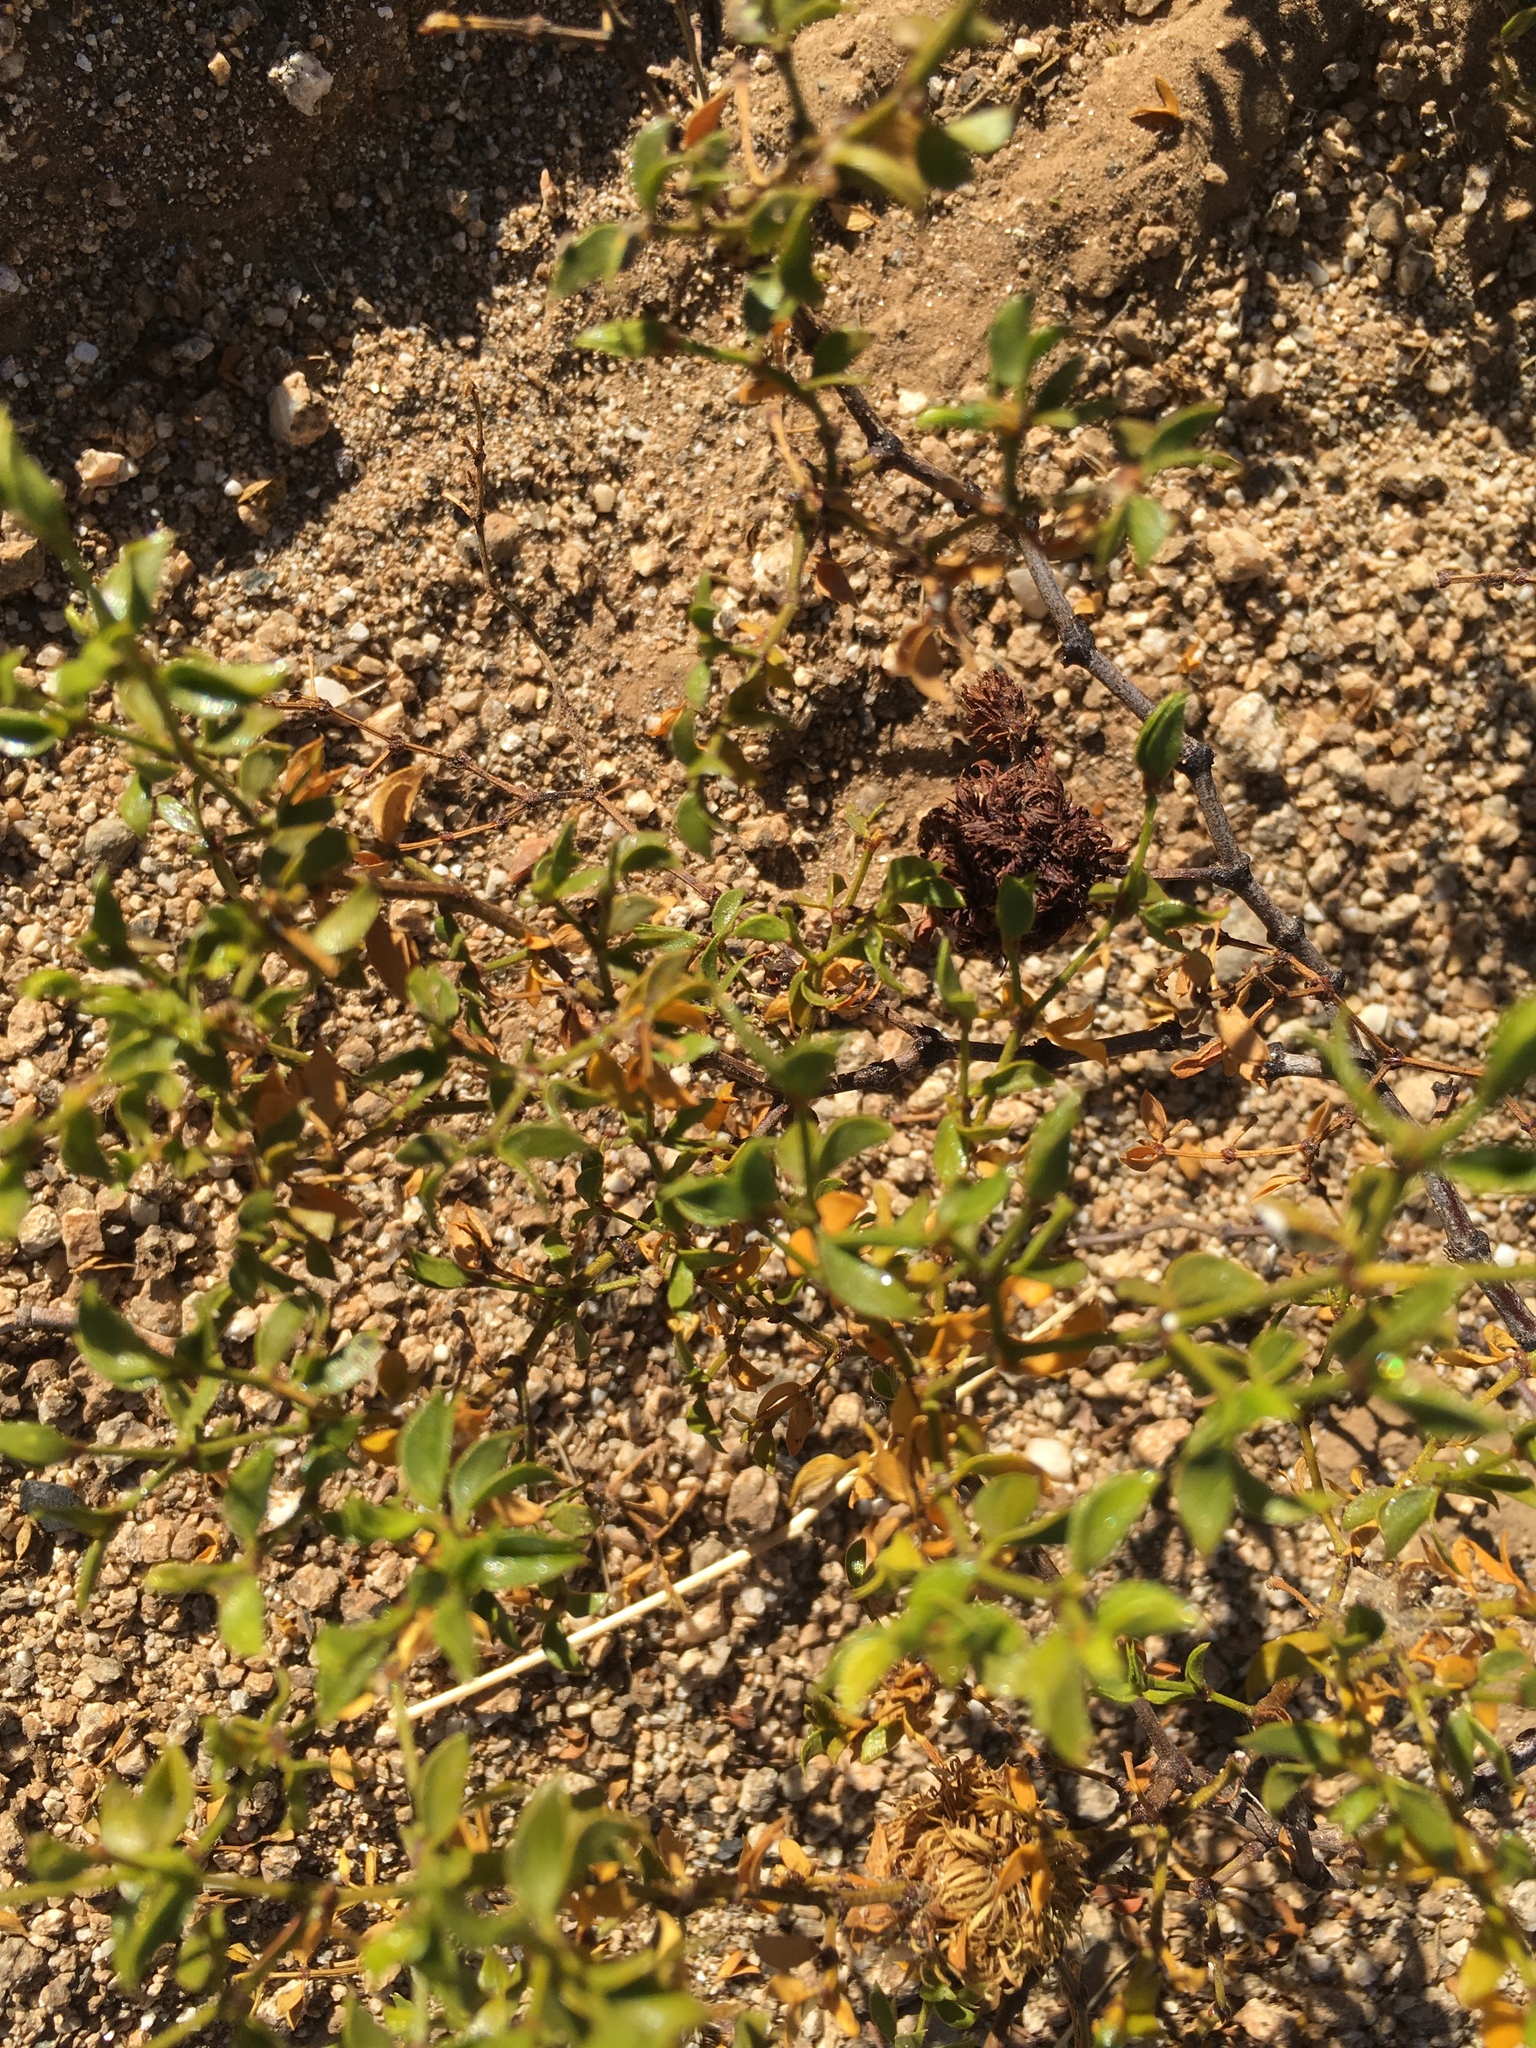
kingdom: Animalia
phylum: Arthropoda
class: Insecta
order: Diptera
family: Cecidomyiidae
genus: Asphondylia
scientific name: Asphondylia auripila
